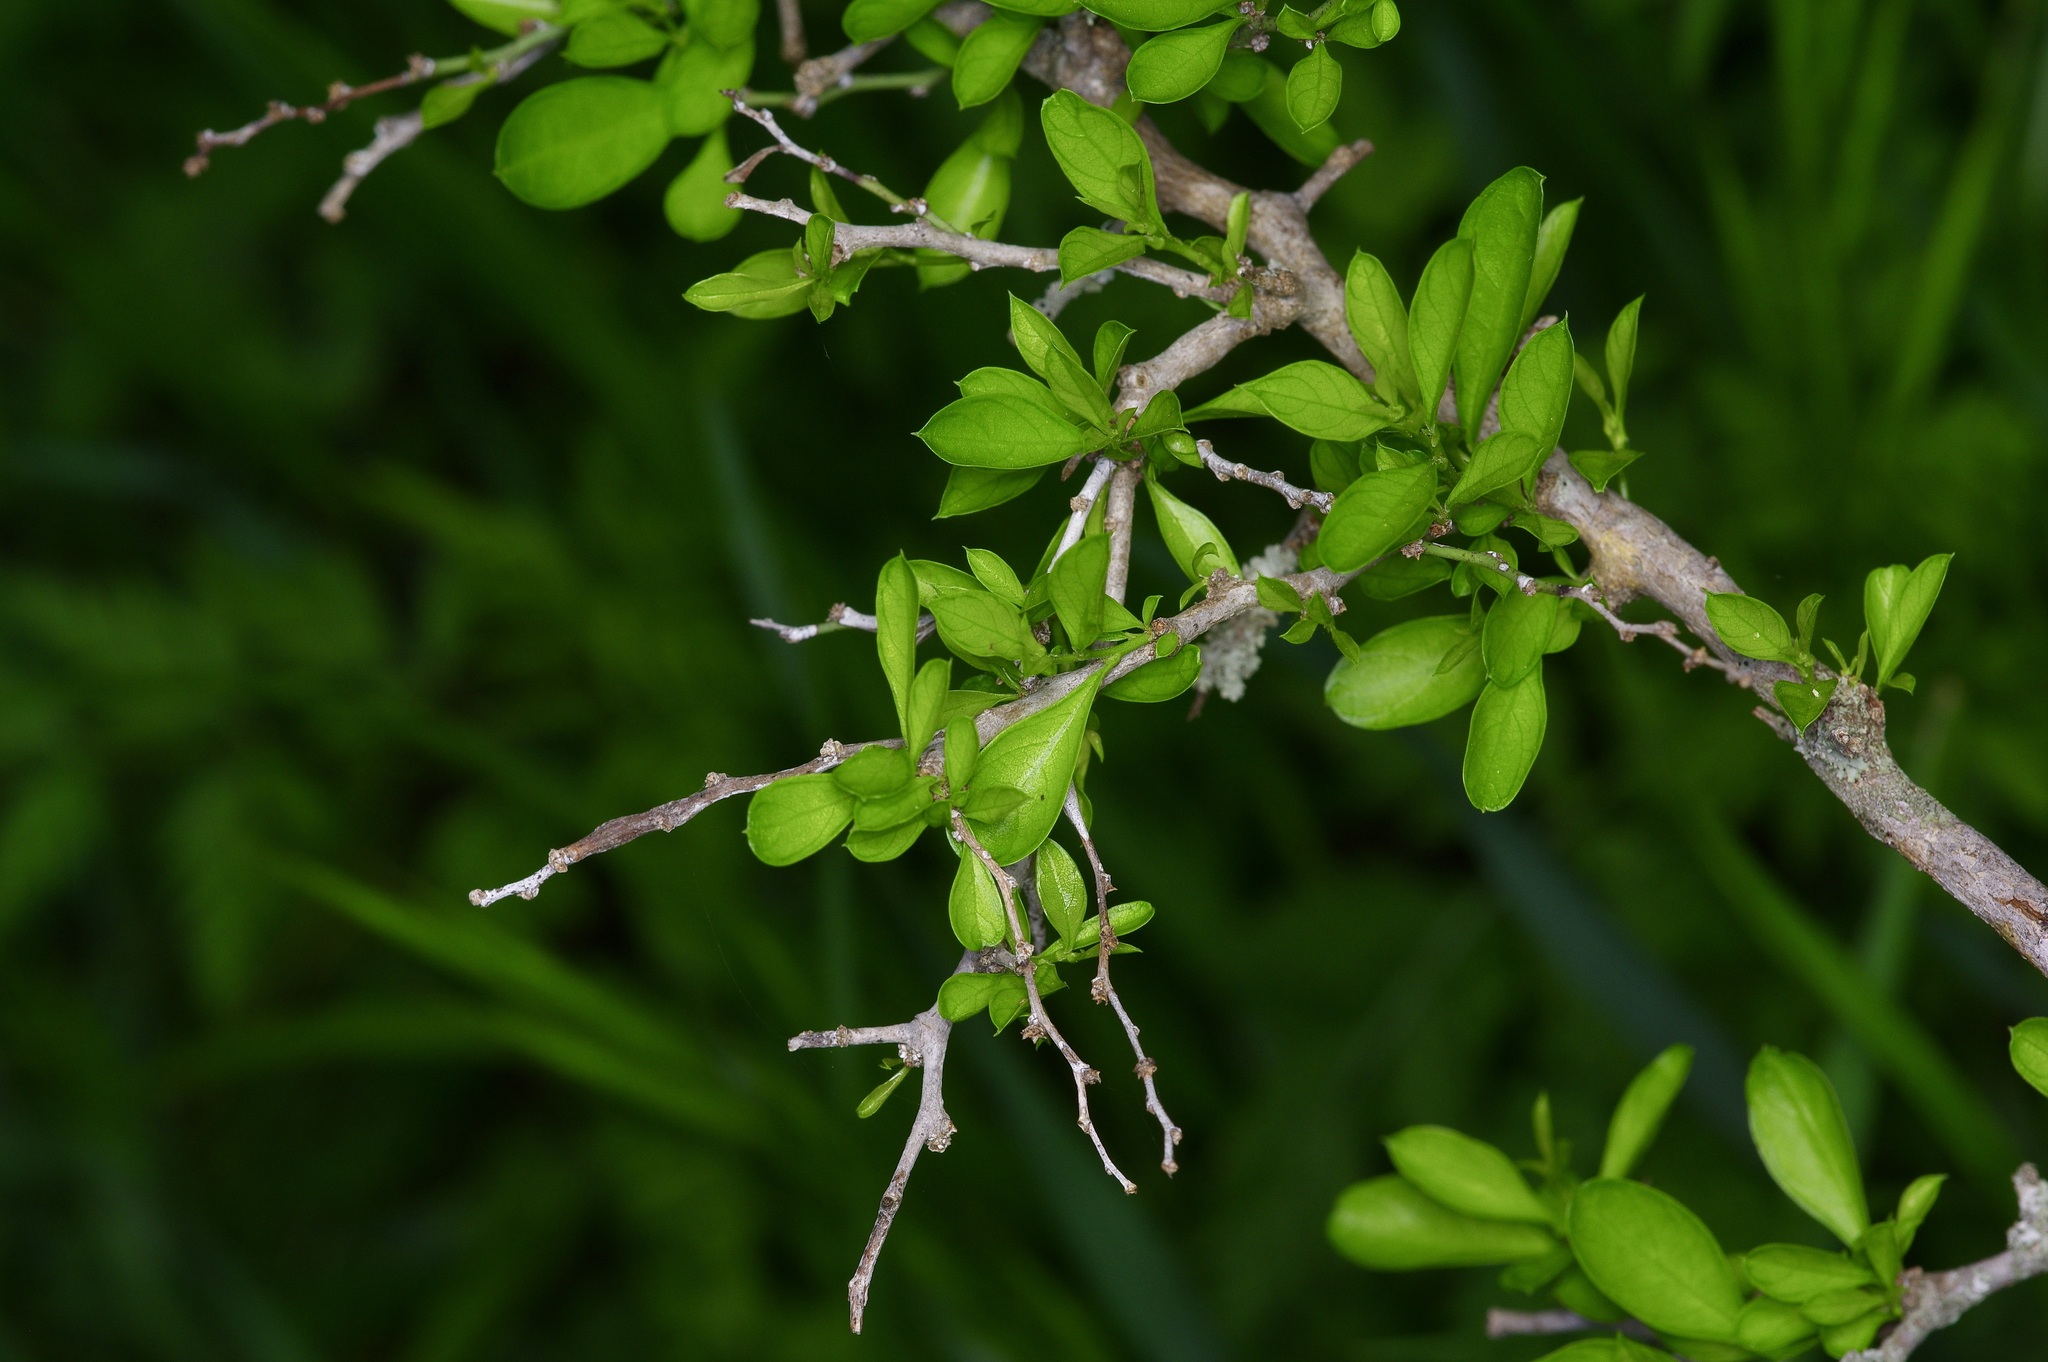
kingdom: Plantae
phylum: Tracheophyta
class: Magnoliopsida
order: Rosales
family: Rhamnaceae
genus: Condalia
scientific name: Condalia hookeri
